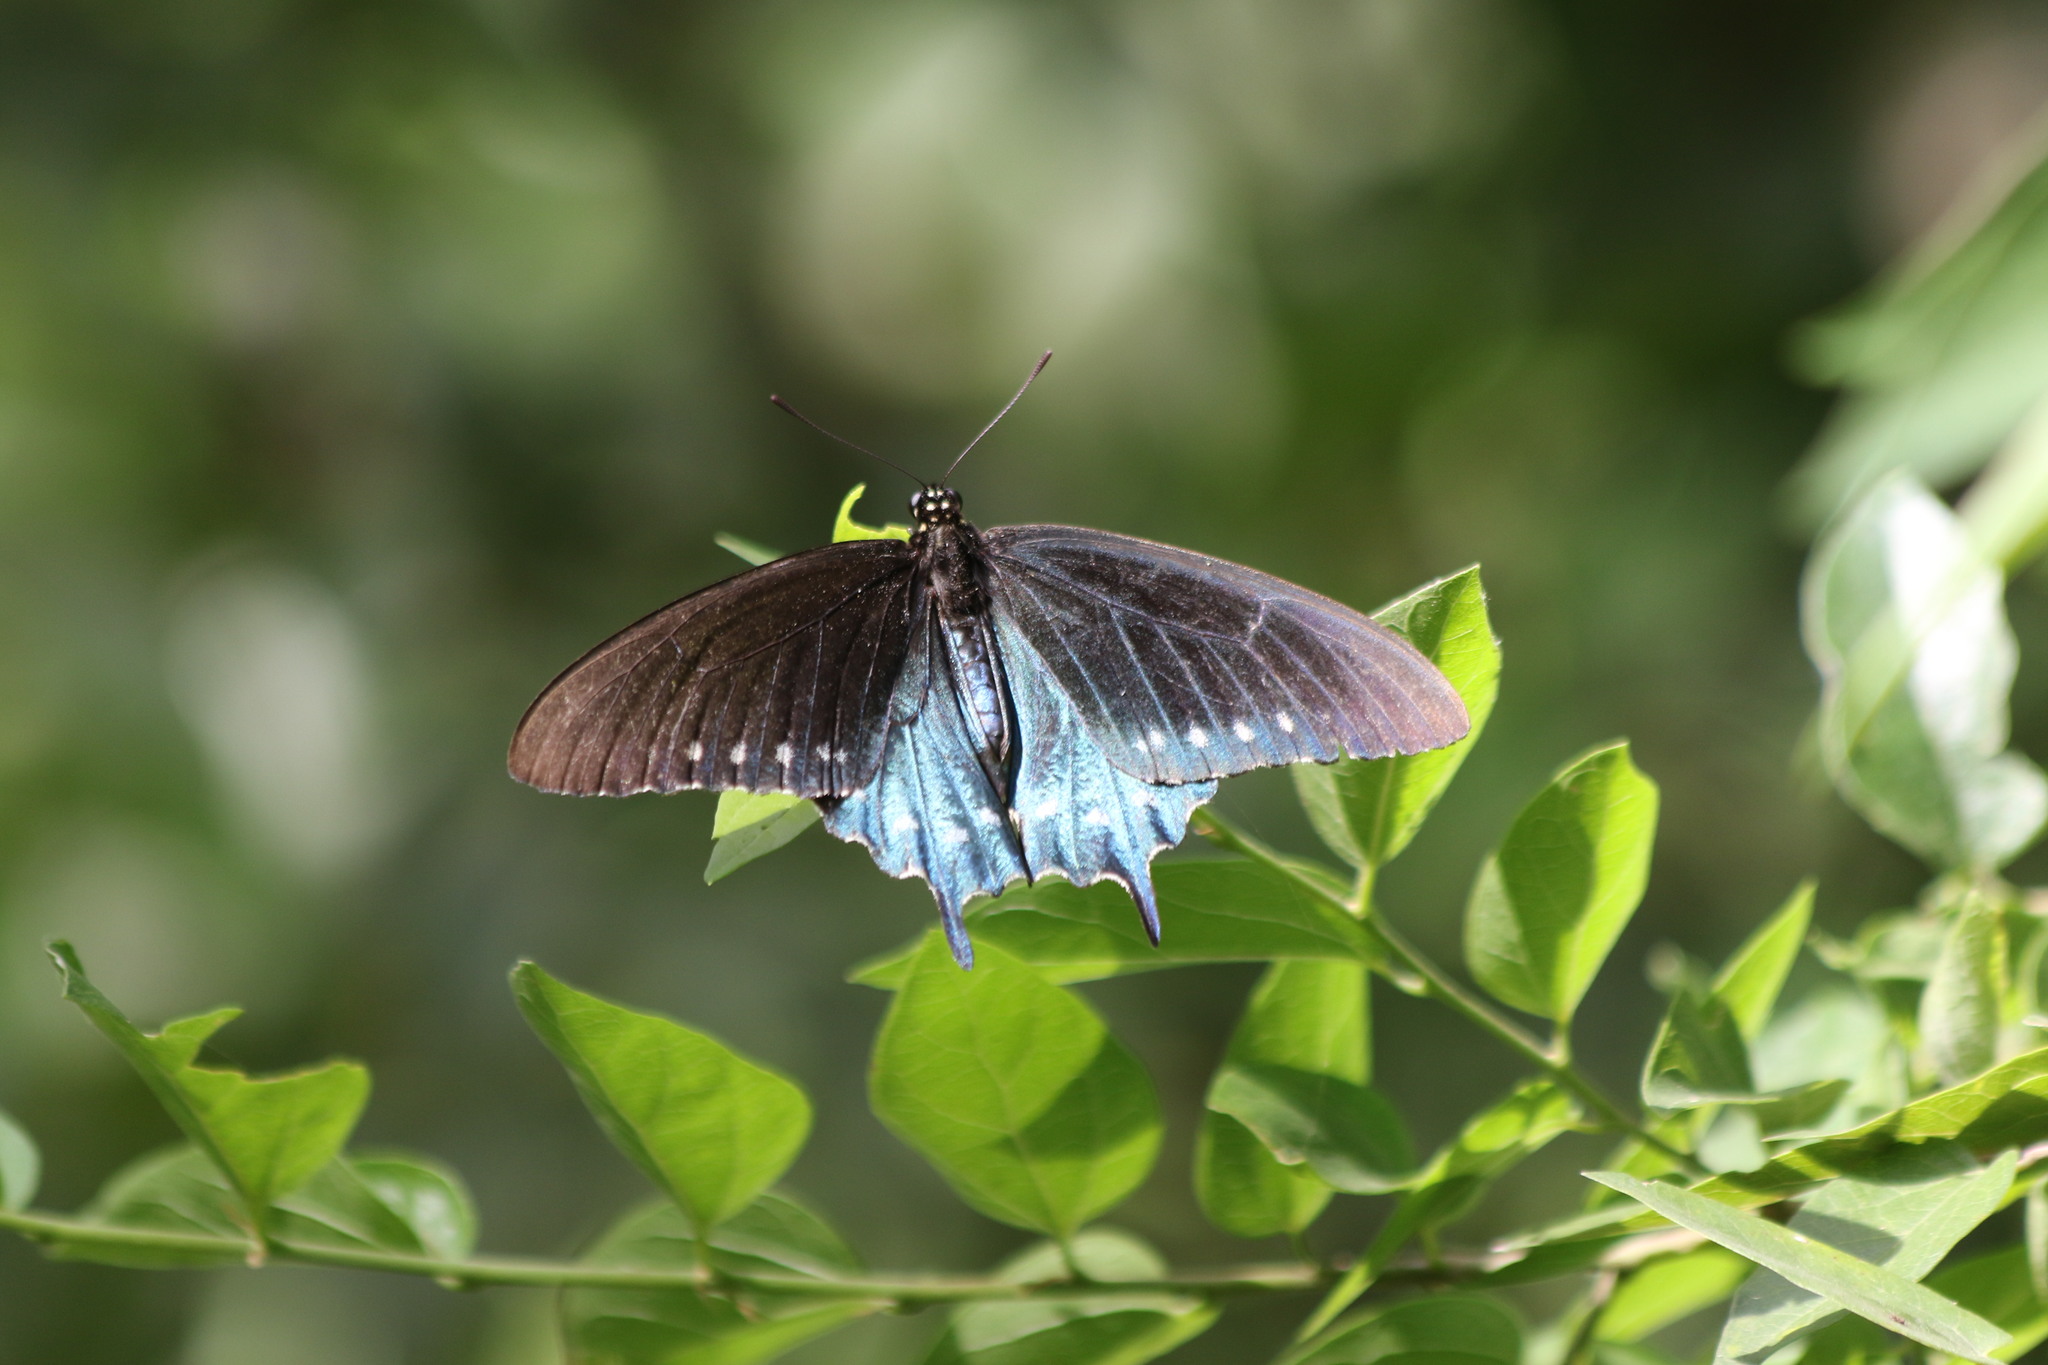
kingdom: Animalia
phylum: Arthropoda
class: Insecta
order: Lepidoptera
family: Papilionidae
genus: Battus
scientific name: Battus philenor
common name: Pipevine swallowtail
